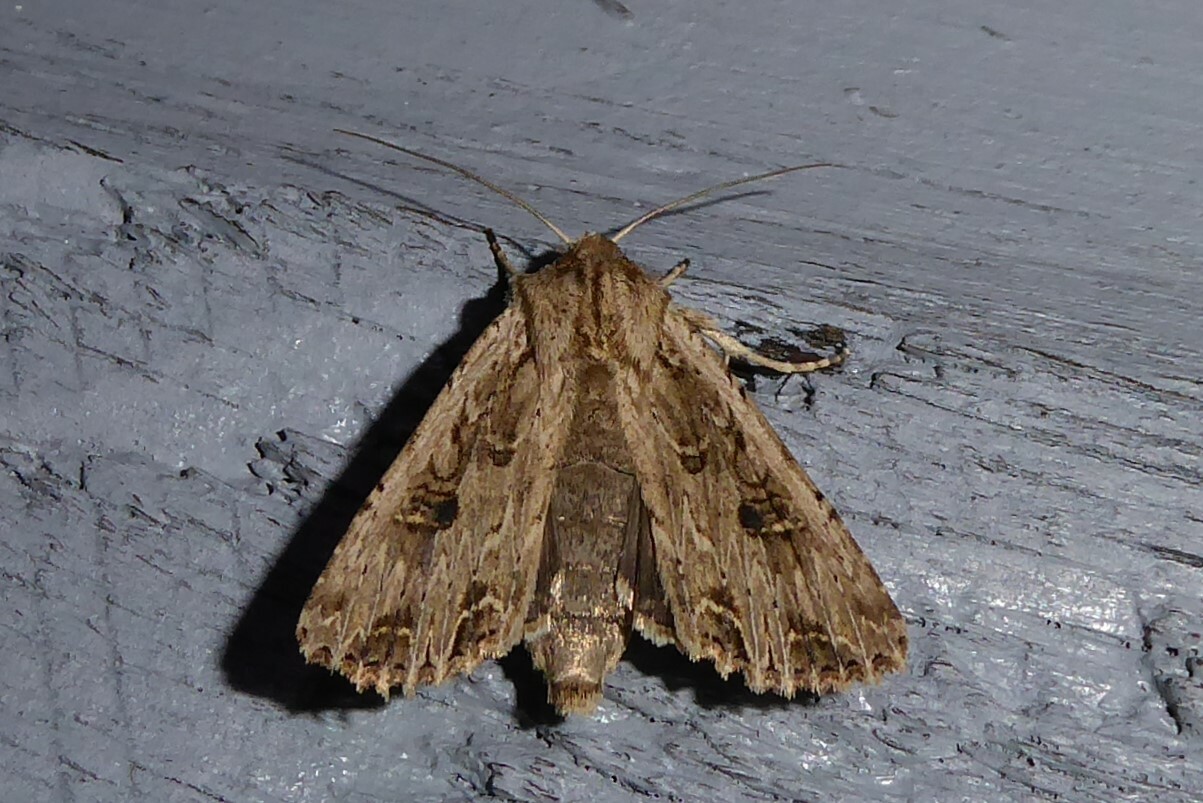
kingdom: Animalia
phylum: Arthropoda
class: Insecta
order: Lepidoptera
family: Noctuidae
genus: Ichneutica
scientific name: Ichneutica lignana
